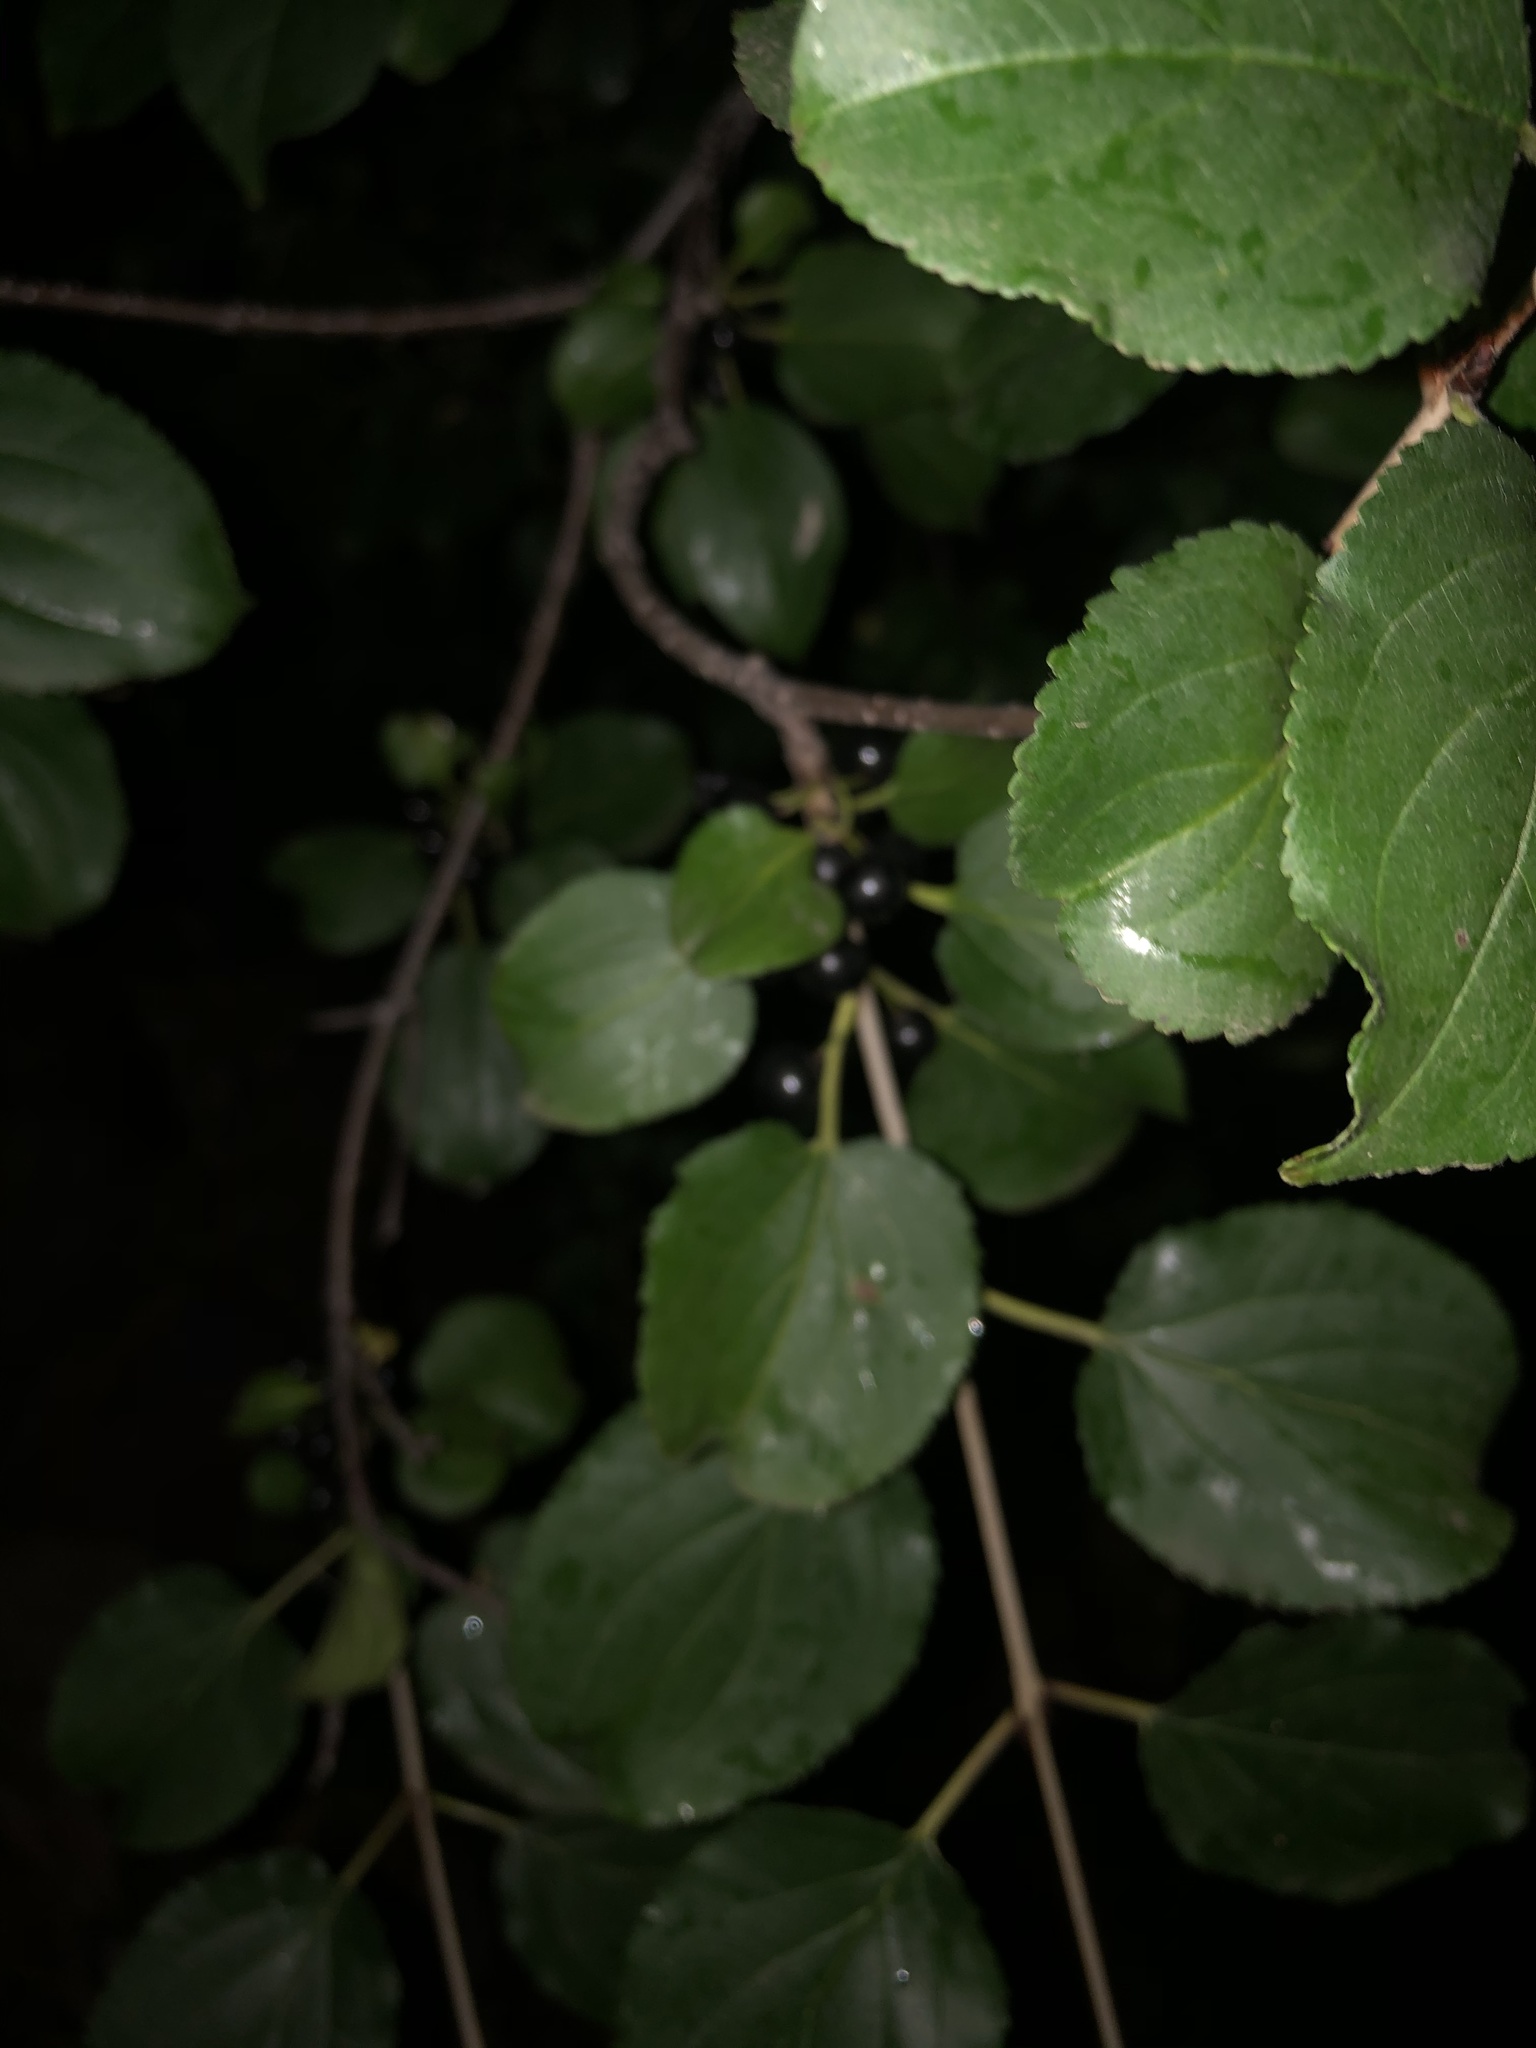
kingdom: Plantae
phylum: Tracheophyta
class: Magnoliopsida
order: Rosales
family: Rhamnaceae
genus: Rhamnus
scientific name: Rhamnus cathartica
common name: Common buckthorn
